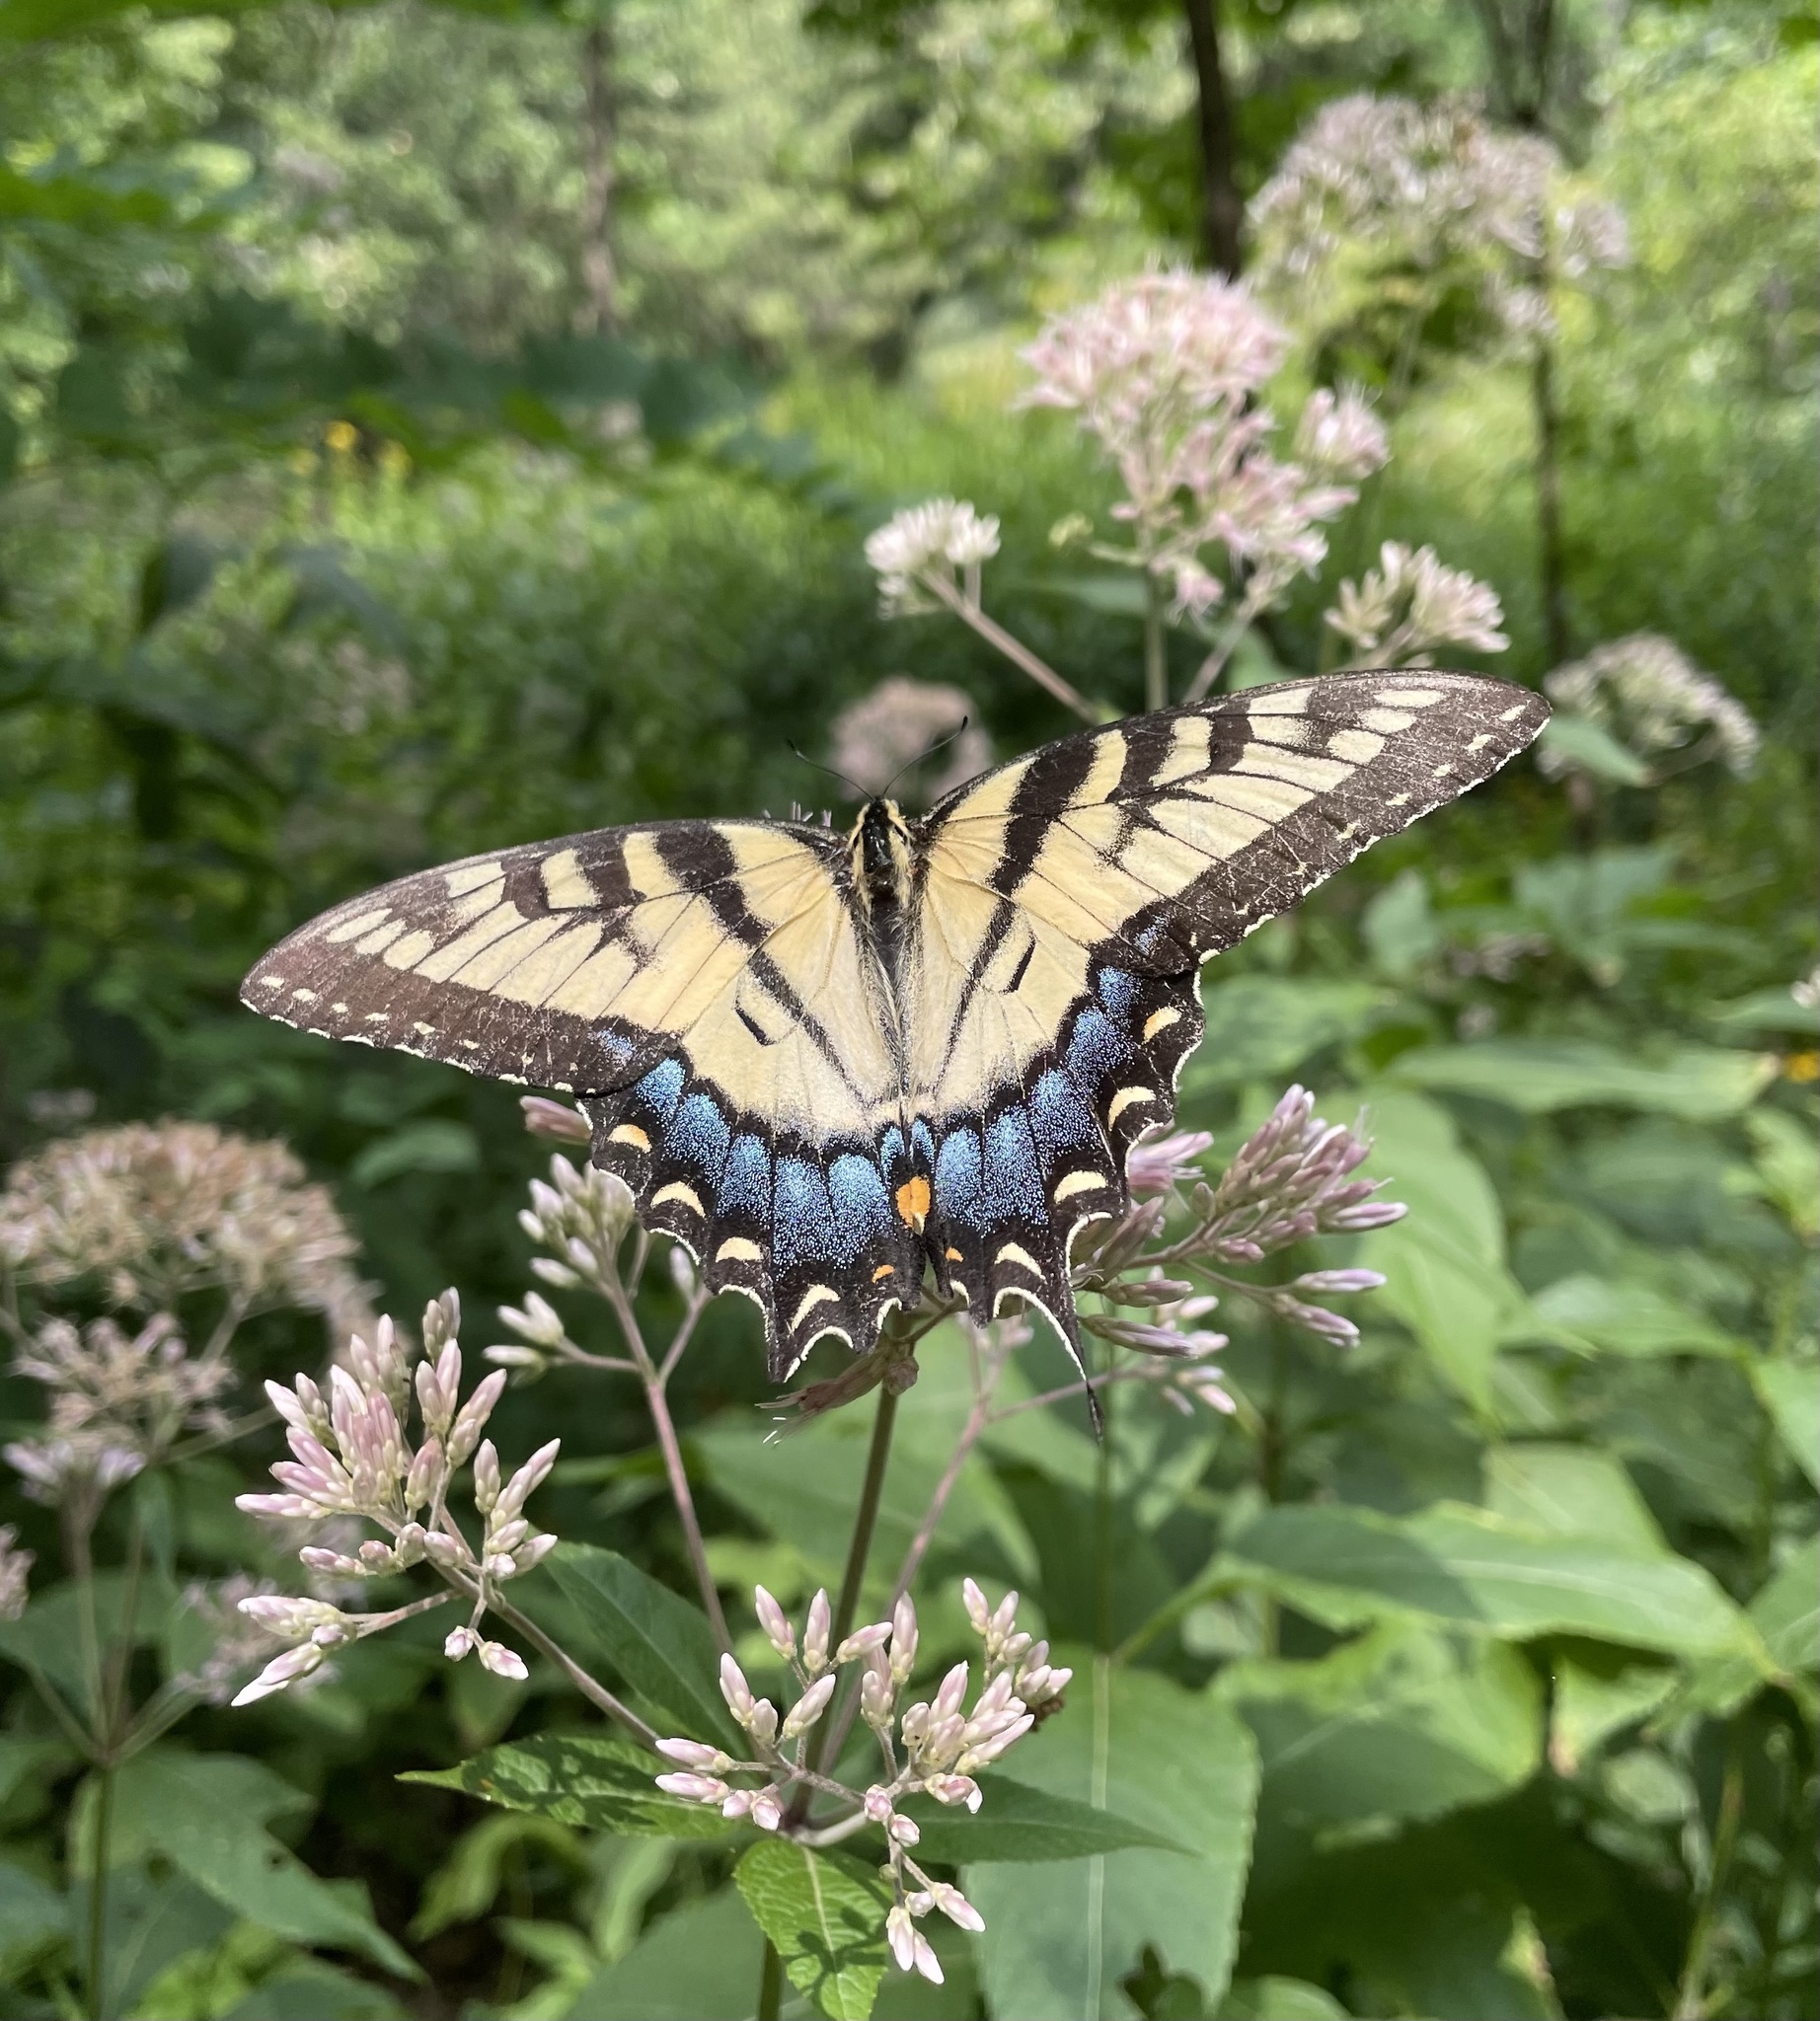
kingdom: Animalia
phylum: Arthropoda
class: Insecta
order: Lepidoptera
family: Papilionidae
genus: Papilio
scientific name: Papilio glaucus
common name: Tiger swallowtail
